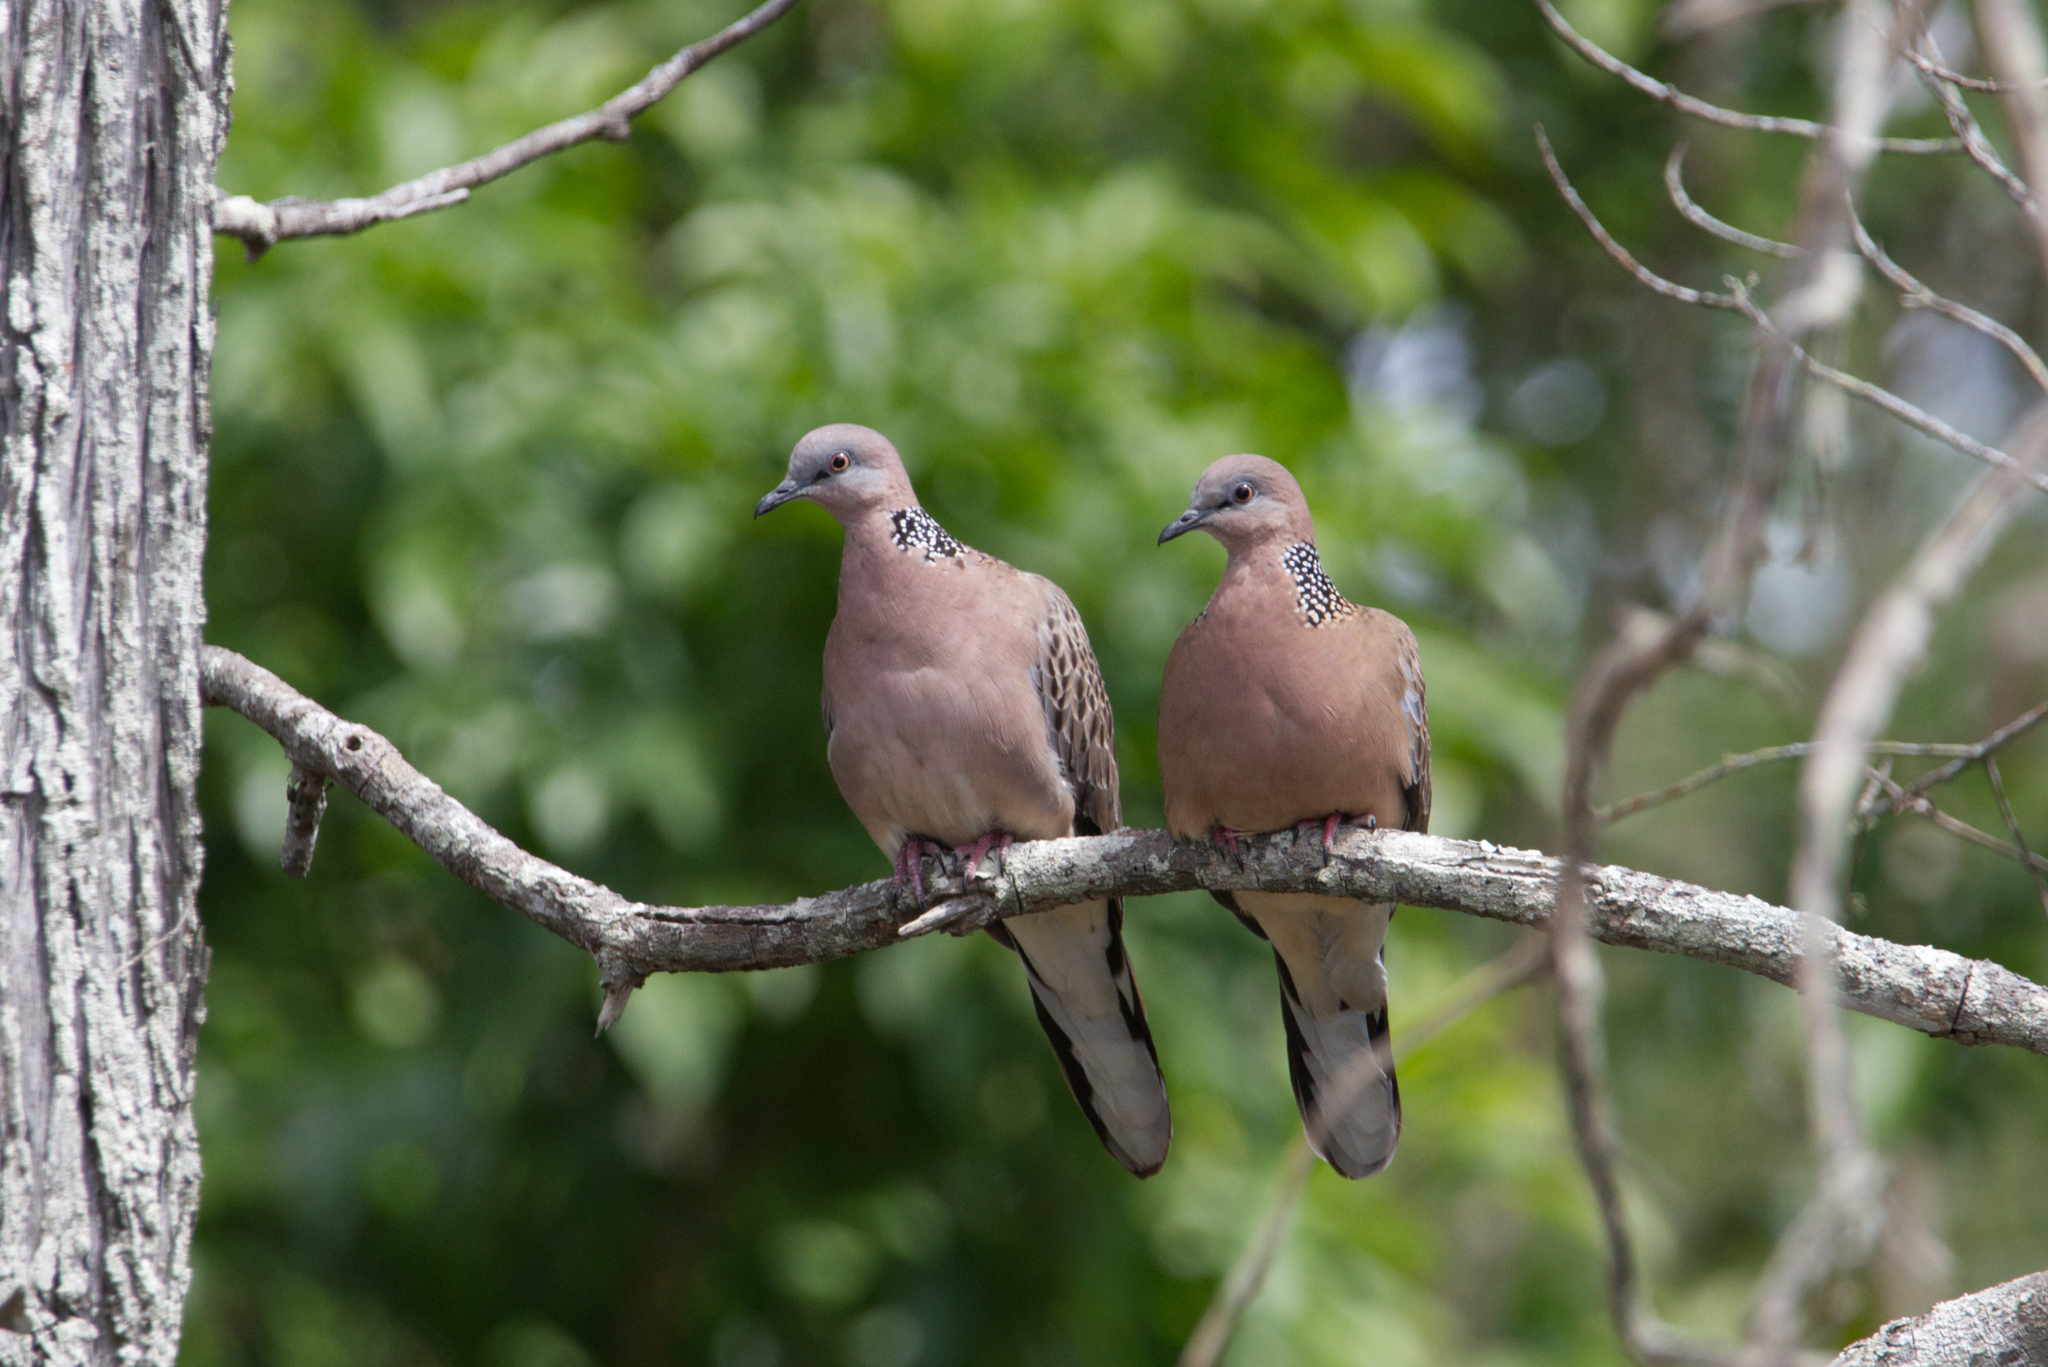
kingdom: Animalia
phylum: Chordata
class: Aves
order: Columbiformes
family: Columbidae
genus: Spilopelia
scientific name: Spilopelia chinensis
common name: Spotted dove
